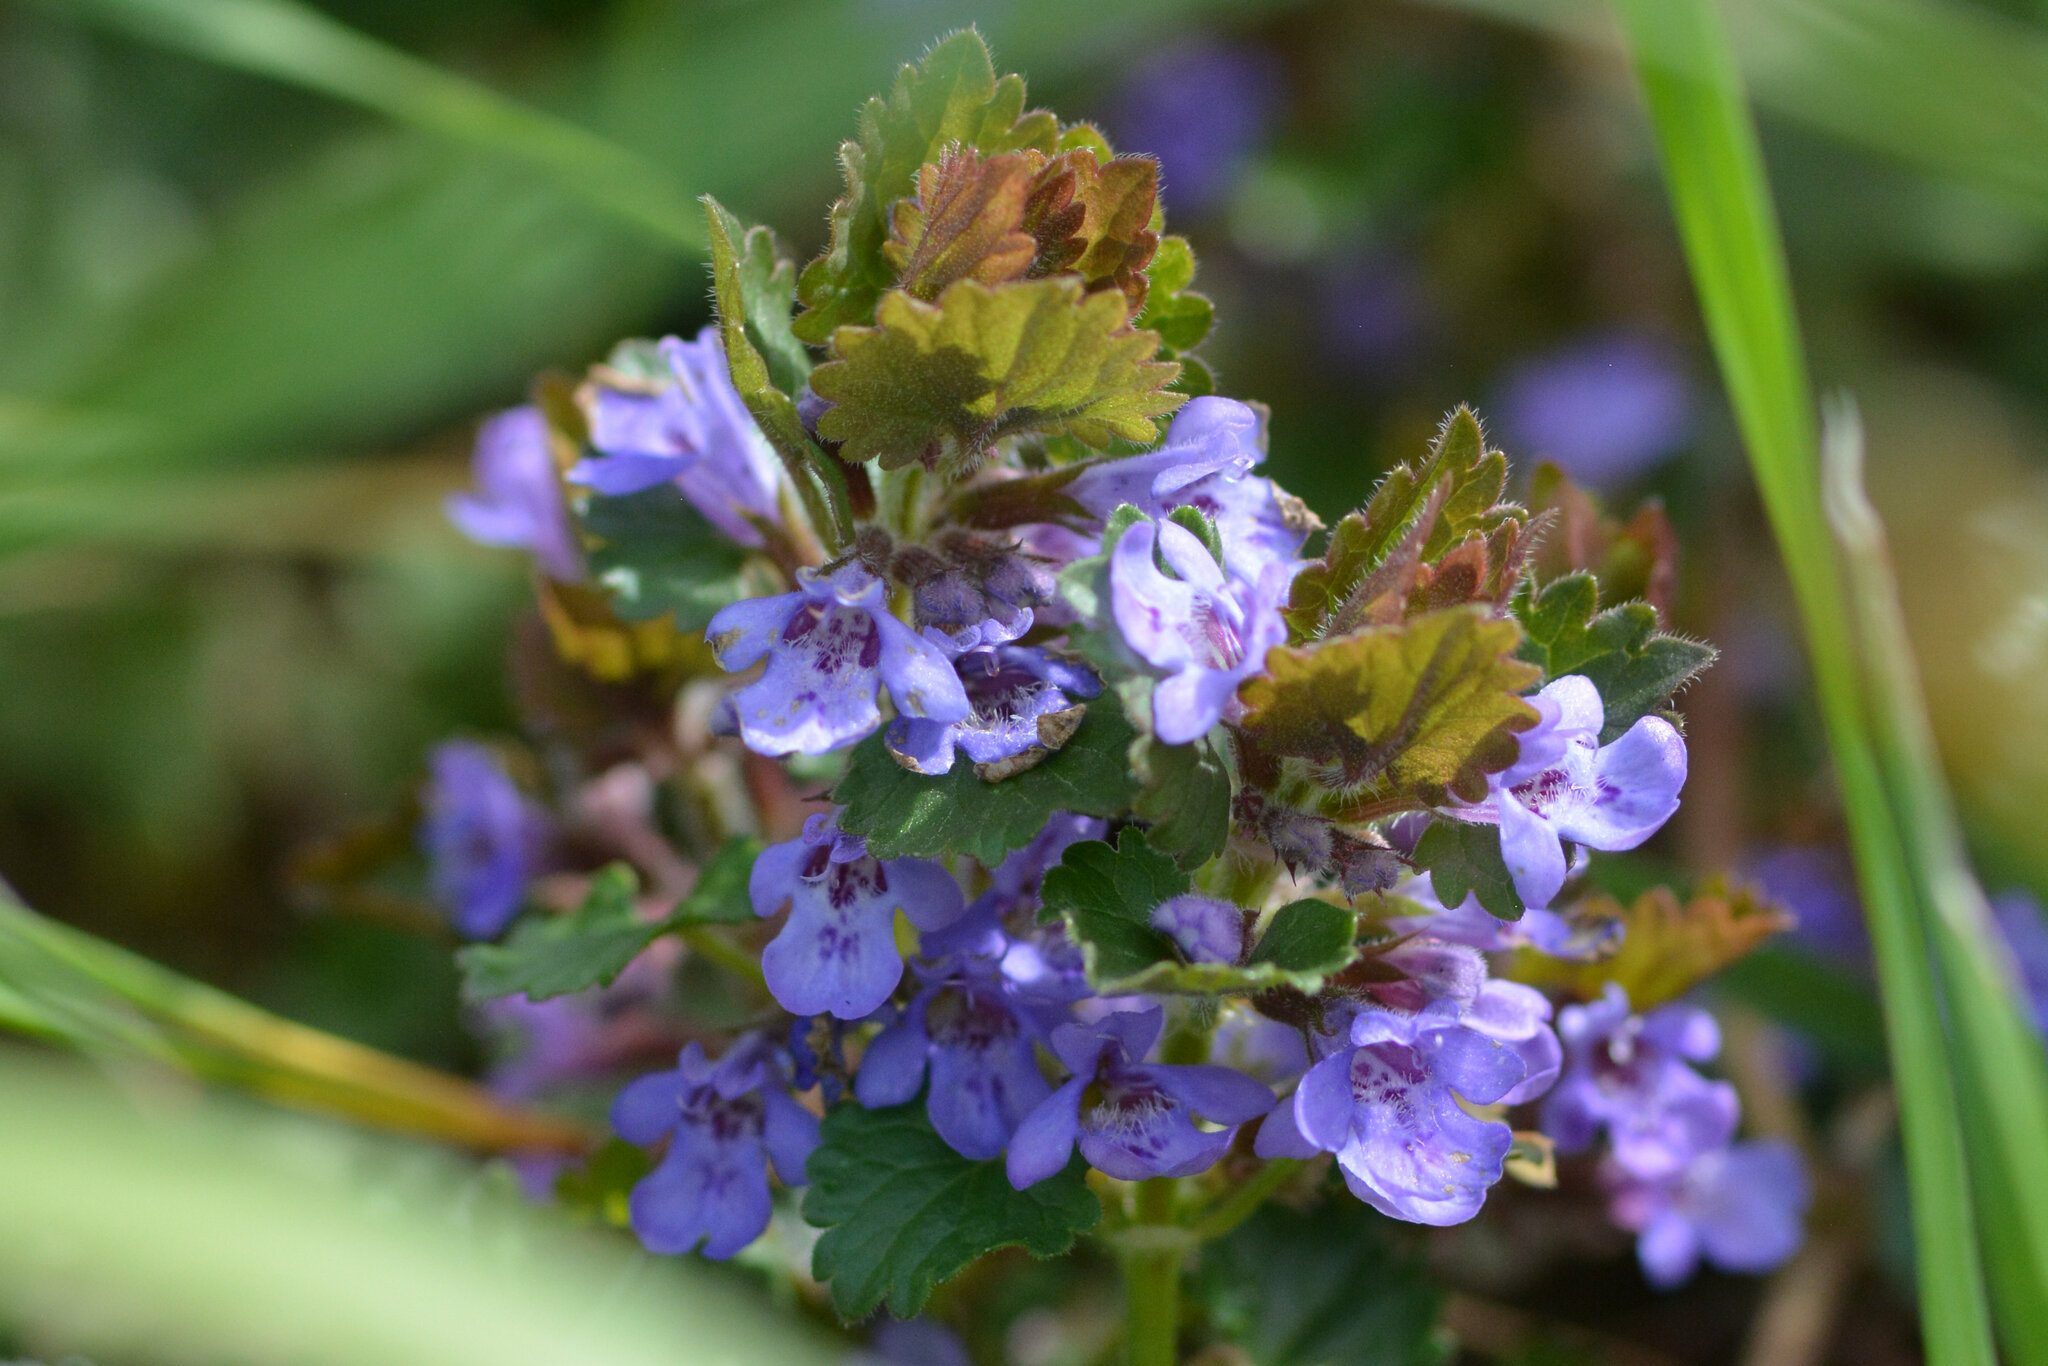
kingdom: Plantae
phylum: Tracheophyta
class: Magnoliopsida
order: Lamiales
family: Lamiaceae
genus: Glechoma
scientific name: Glechoma hederacea
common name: Ground ivy
